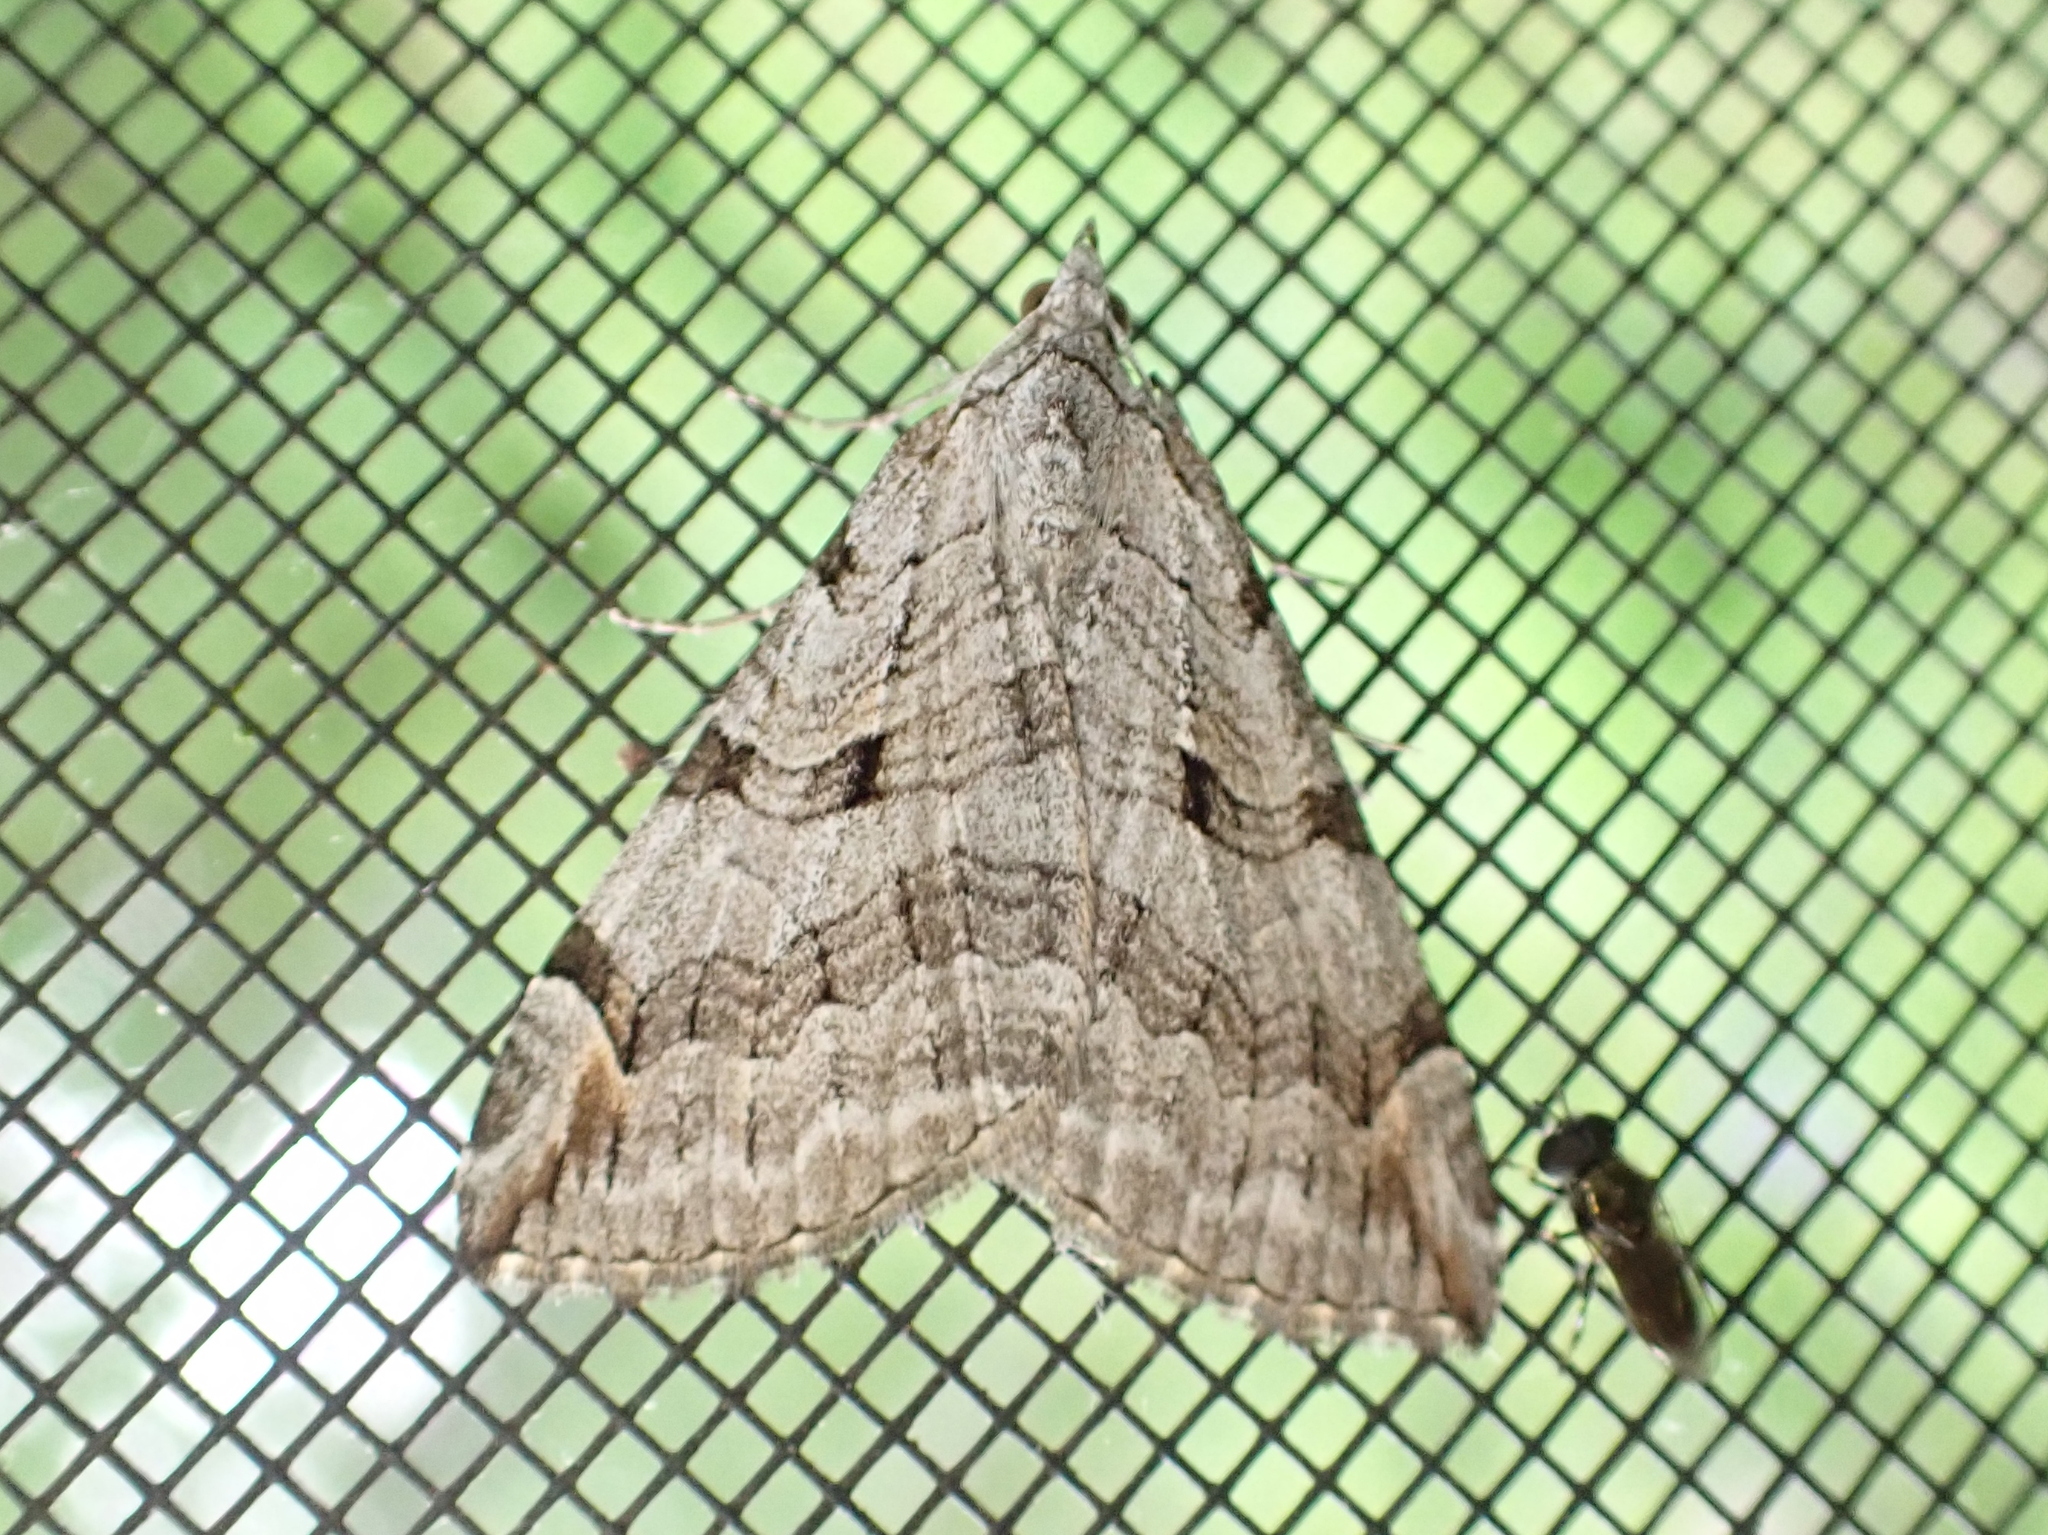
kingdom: Animalia
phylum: Arthropoda
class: Insecta
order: Lepidoptera
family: Geometridae
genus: Aplocera
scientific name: Aplocera plagiata
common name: Treble-bar
